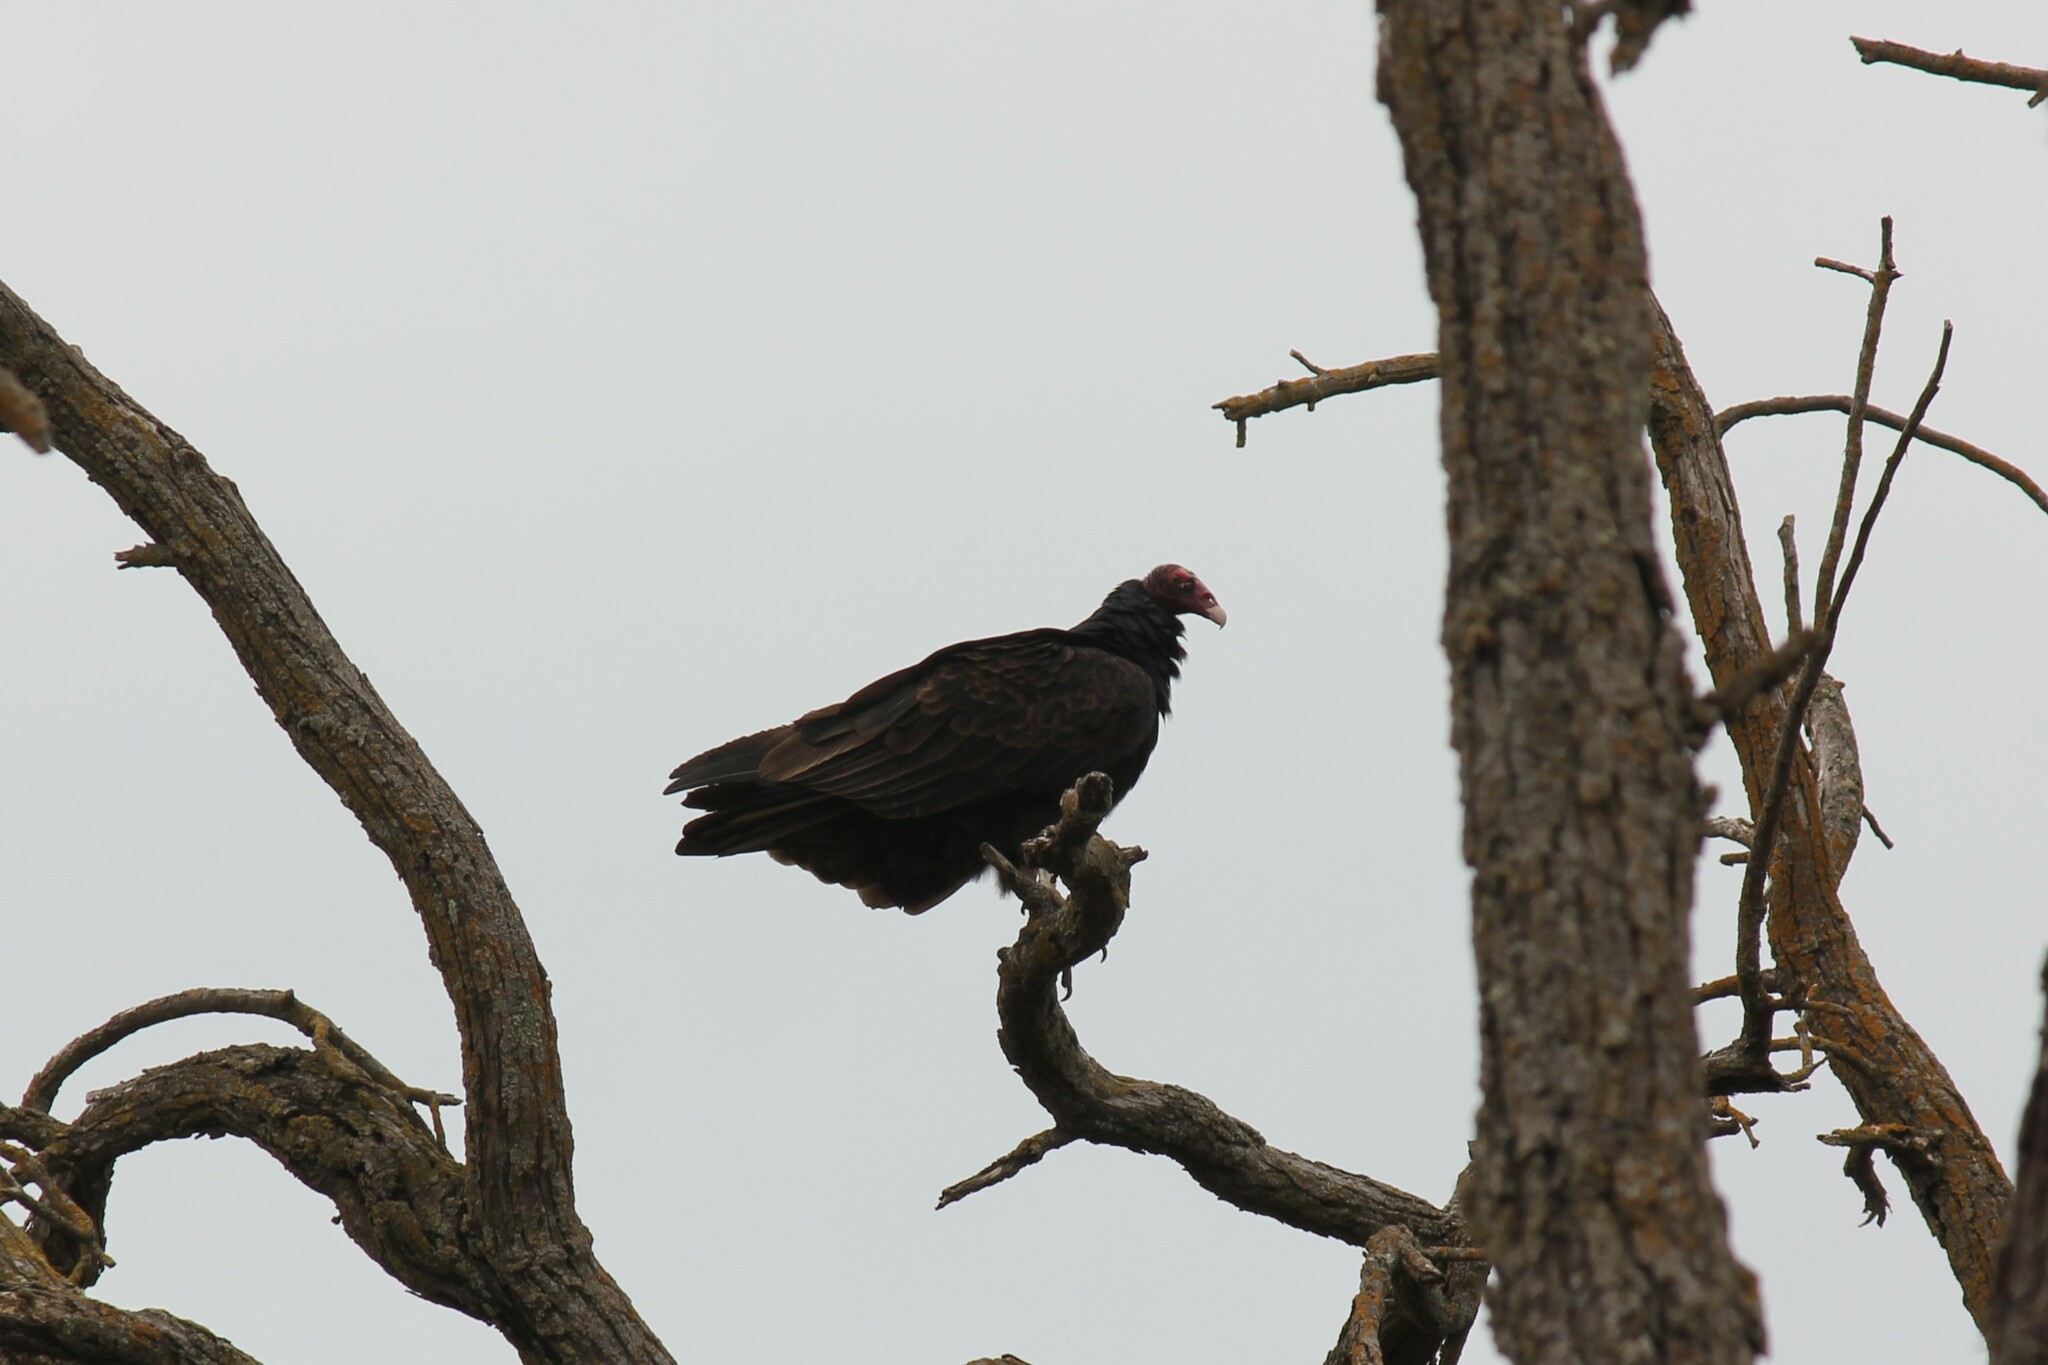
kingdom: Animalia
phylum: Chordata
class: Aves
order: Accipitriformes
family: Cathartidae
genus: Cathartes
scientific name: Cathartes aura
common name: Turkey vulture
